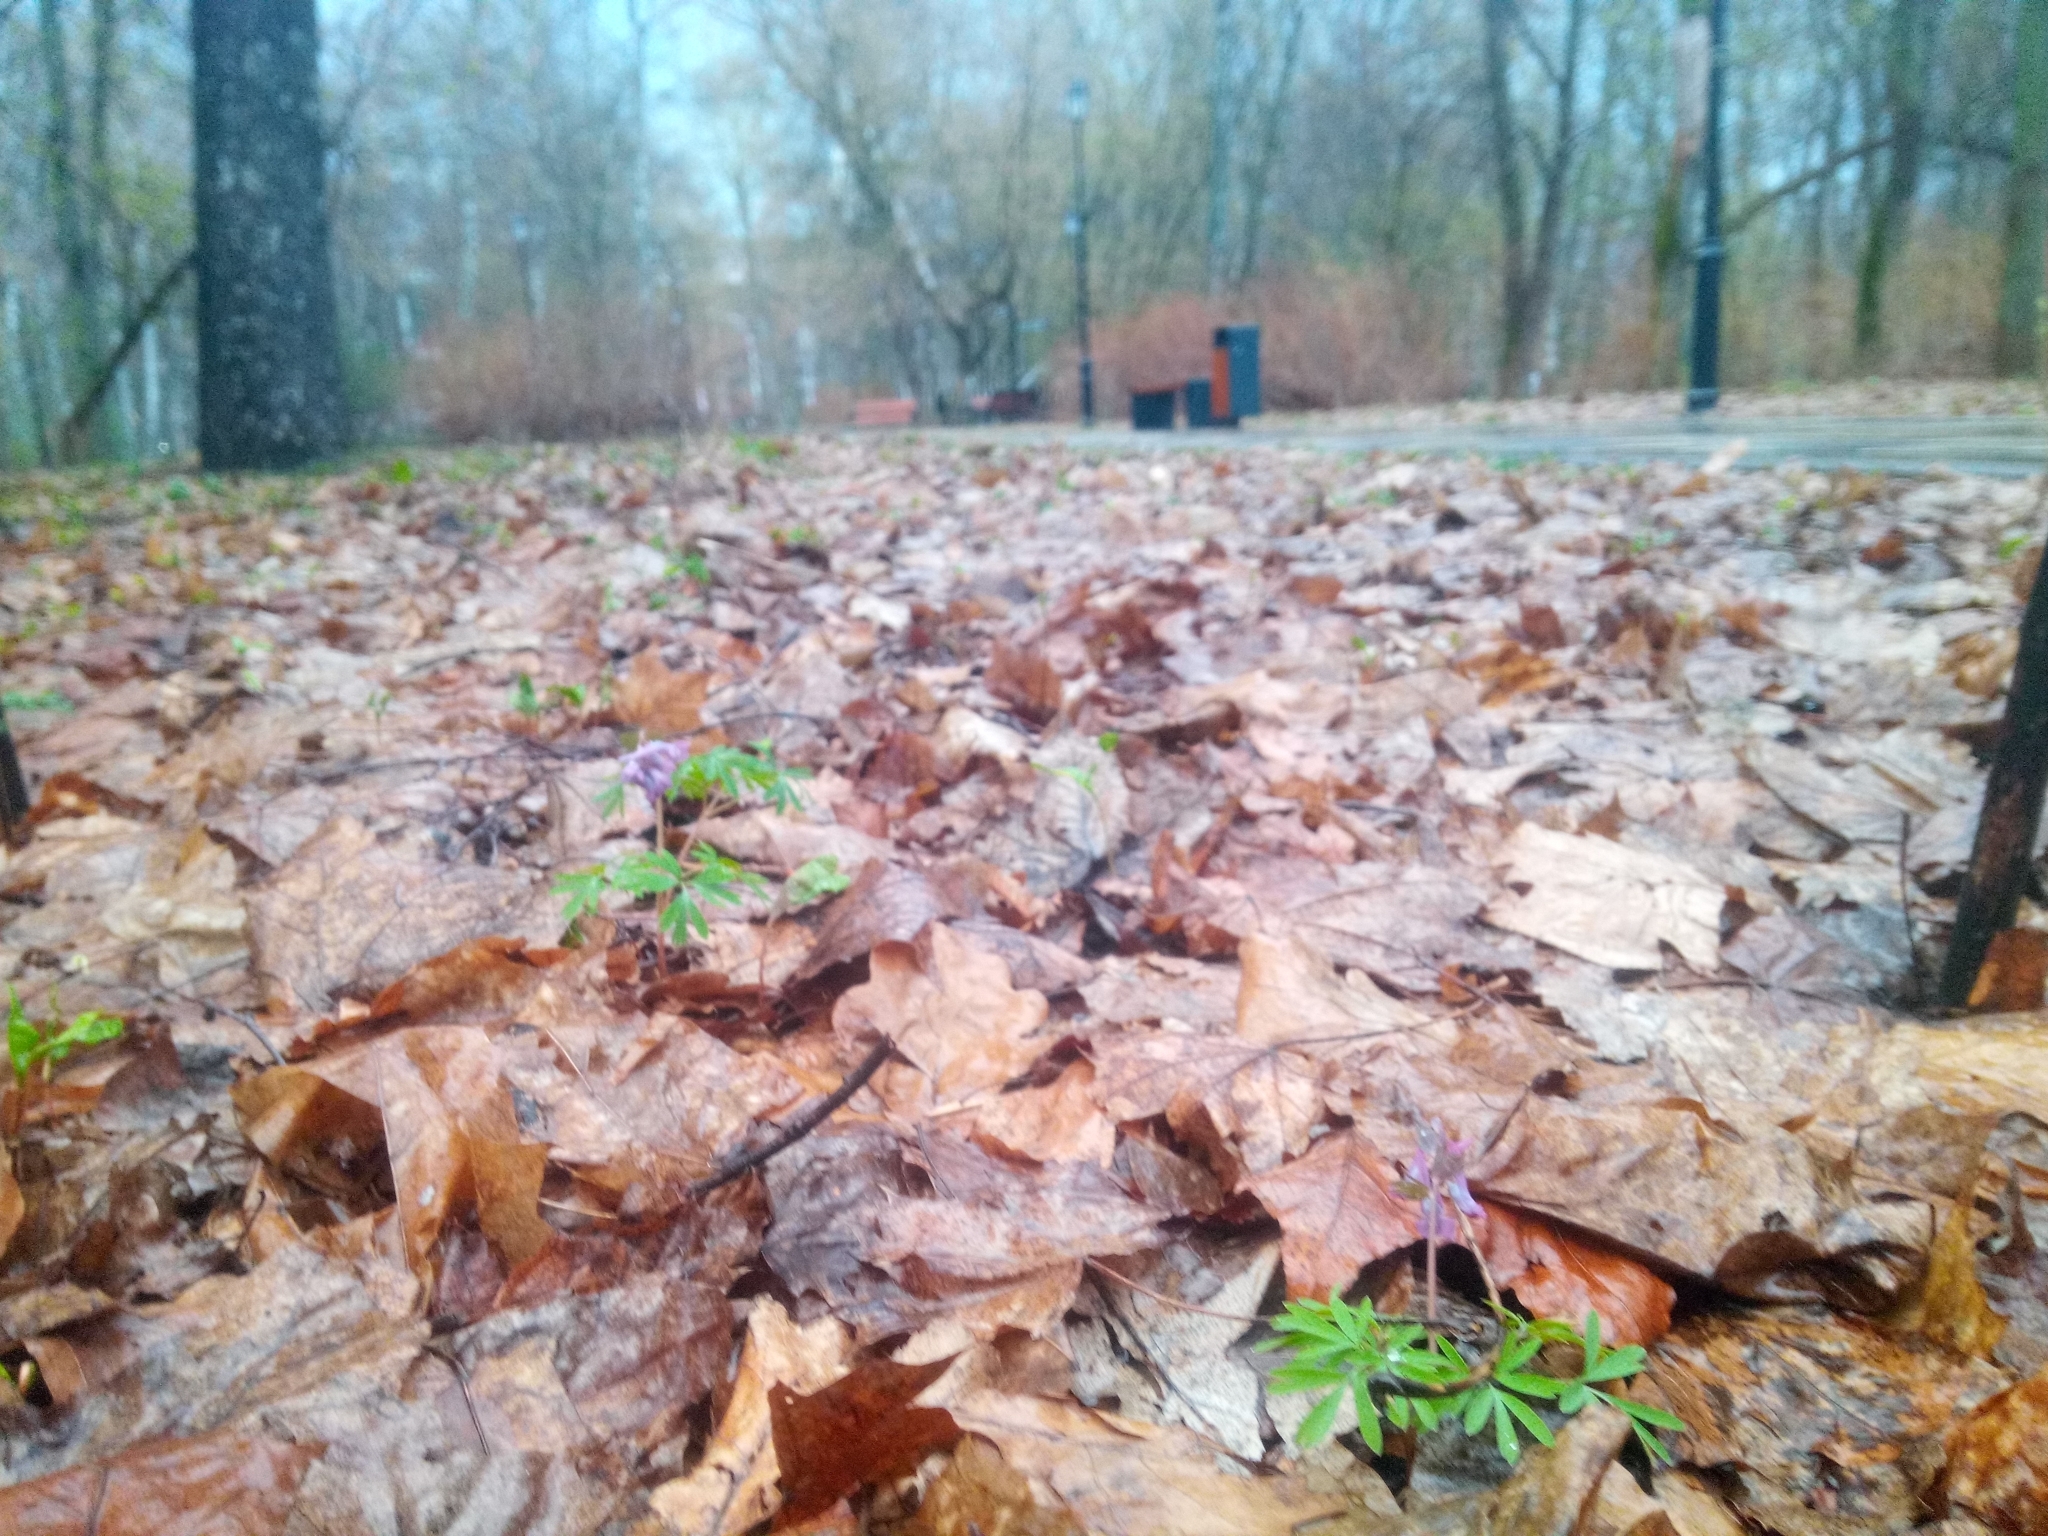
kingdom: Plantae
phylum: Tracheophyta
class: Magnoliopsida
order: Ranunculales
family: Papaveraceae
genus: Corydalis
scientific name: Corydalis solida
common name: Bird-in-a-bush
